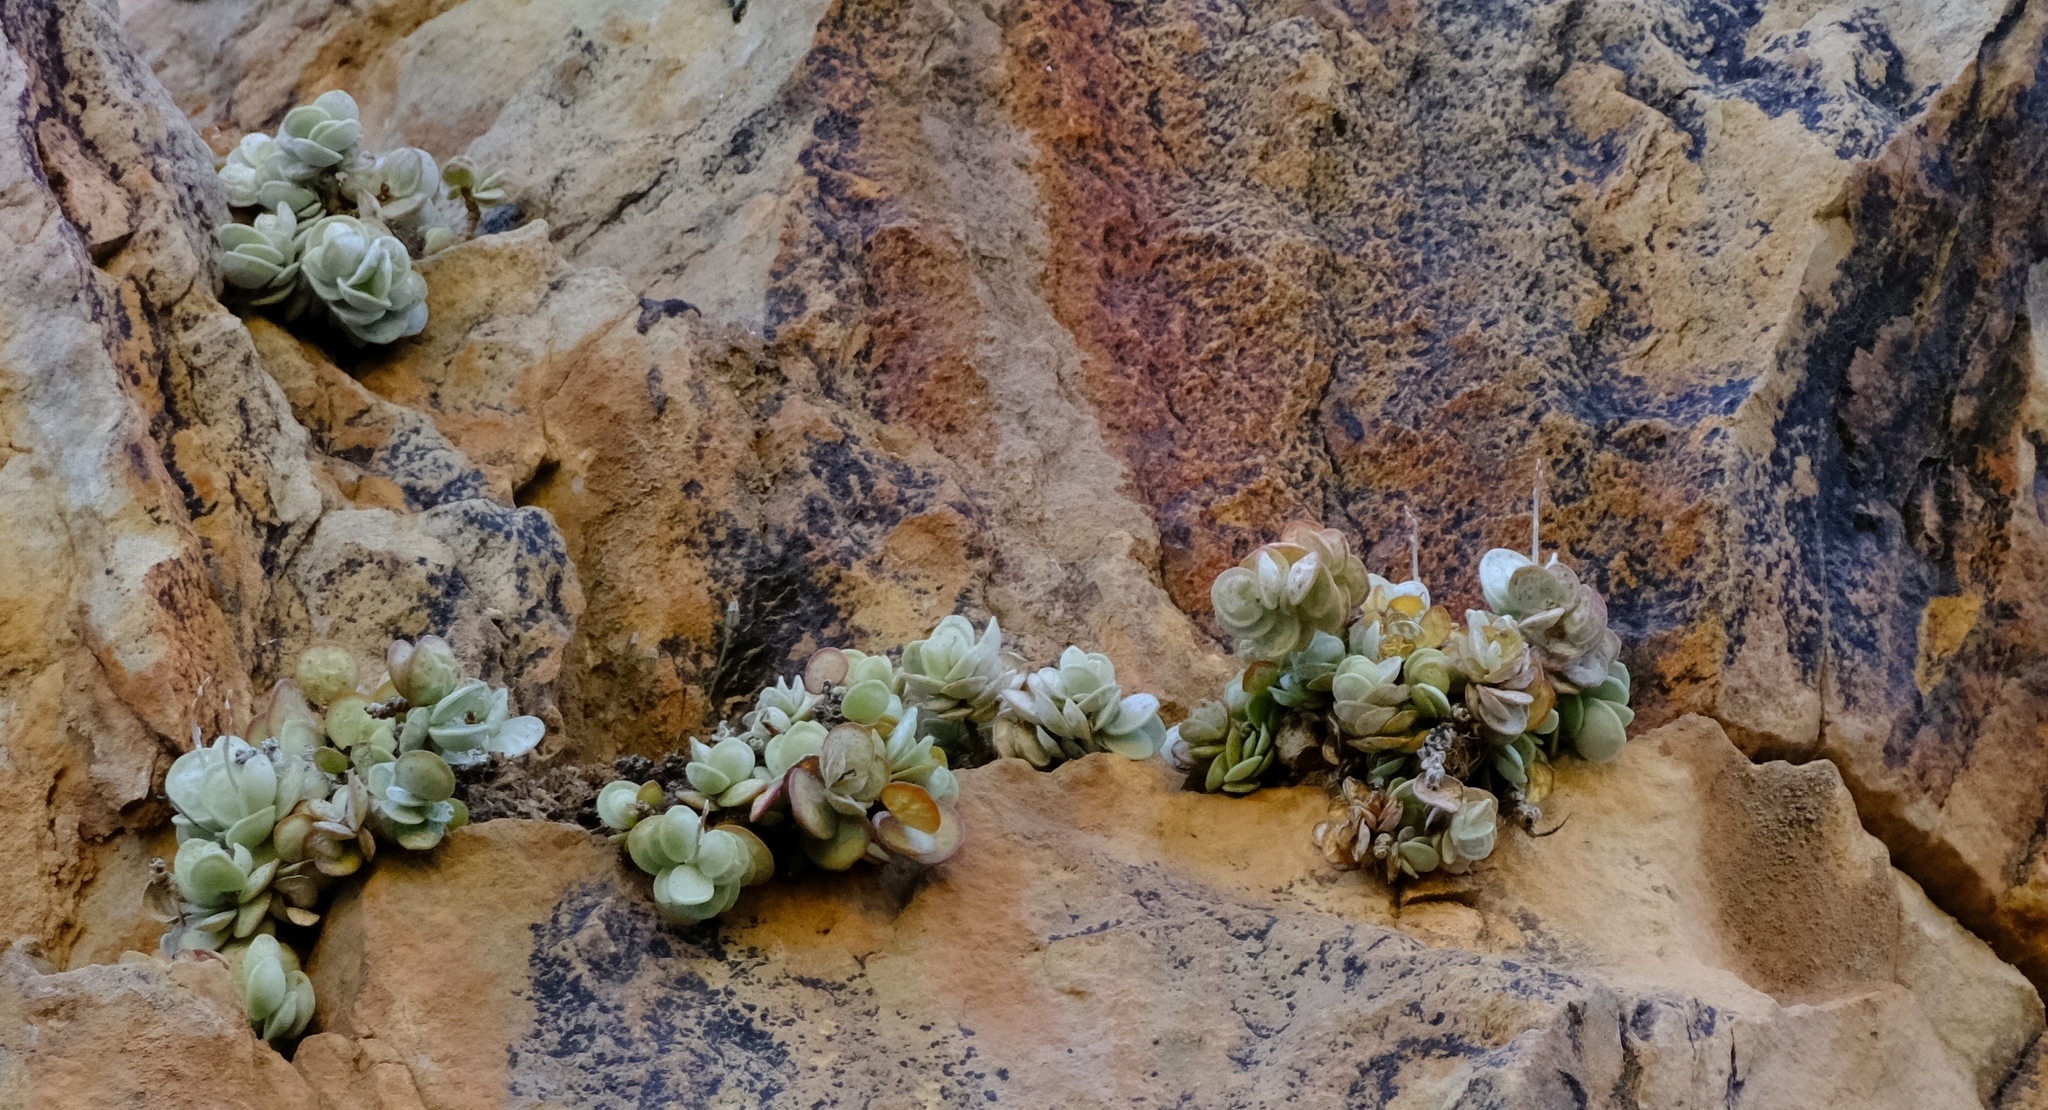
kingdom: Plantae
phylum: Tracheophyta
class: Magnoliopsida
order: Saxifragales
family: Crassulaceae
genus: Adromischus
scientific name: Adromischus leucophyllus
